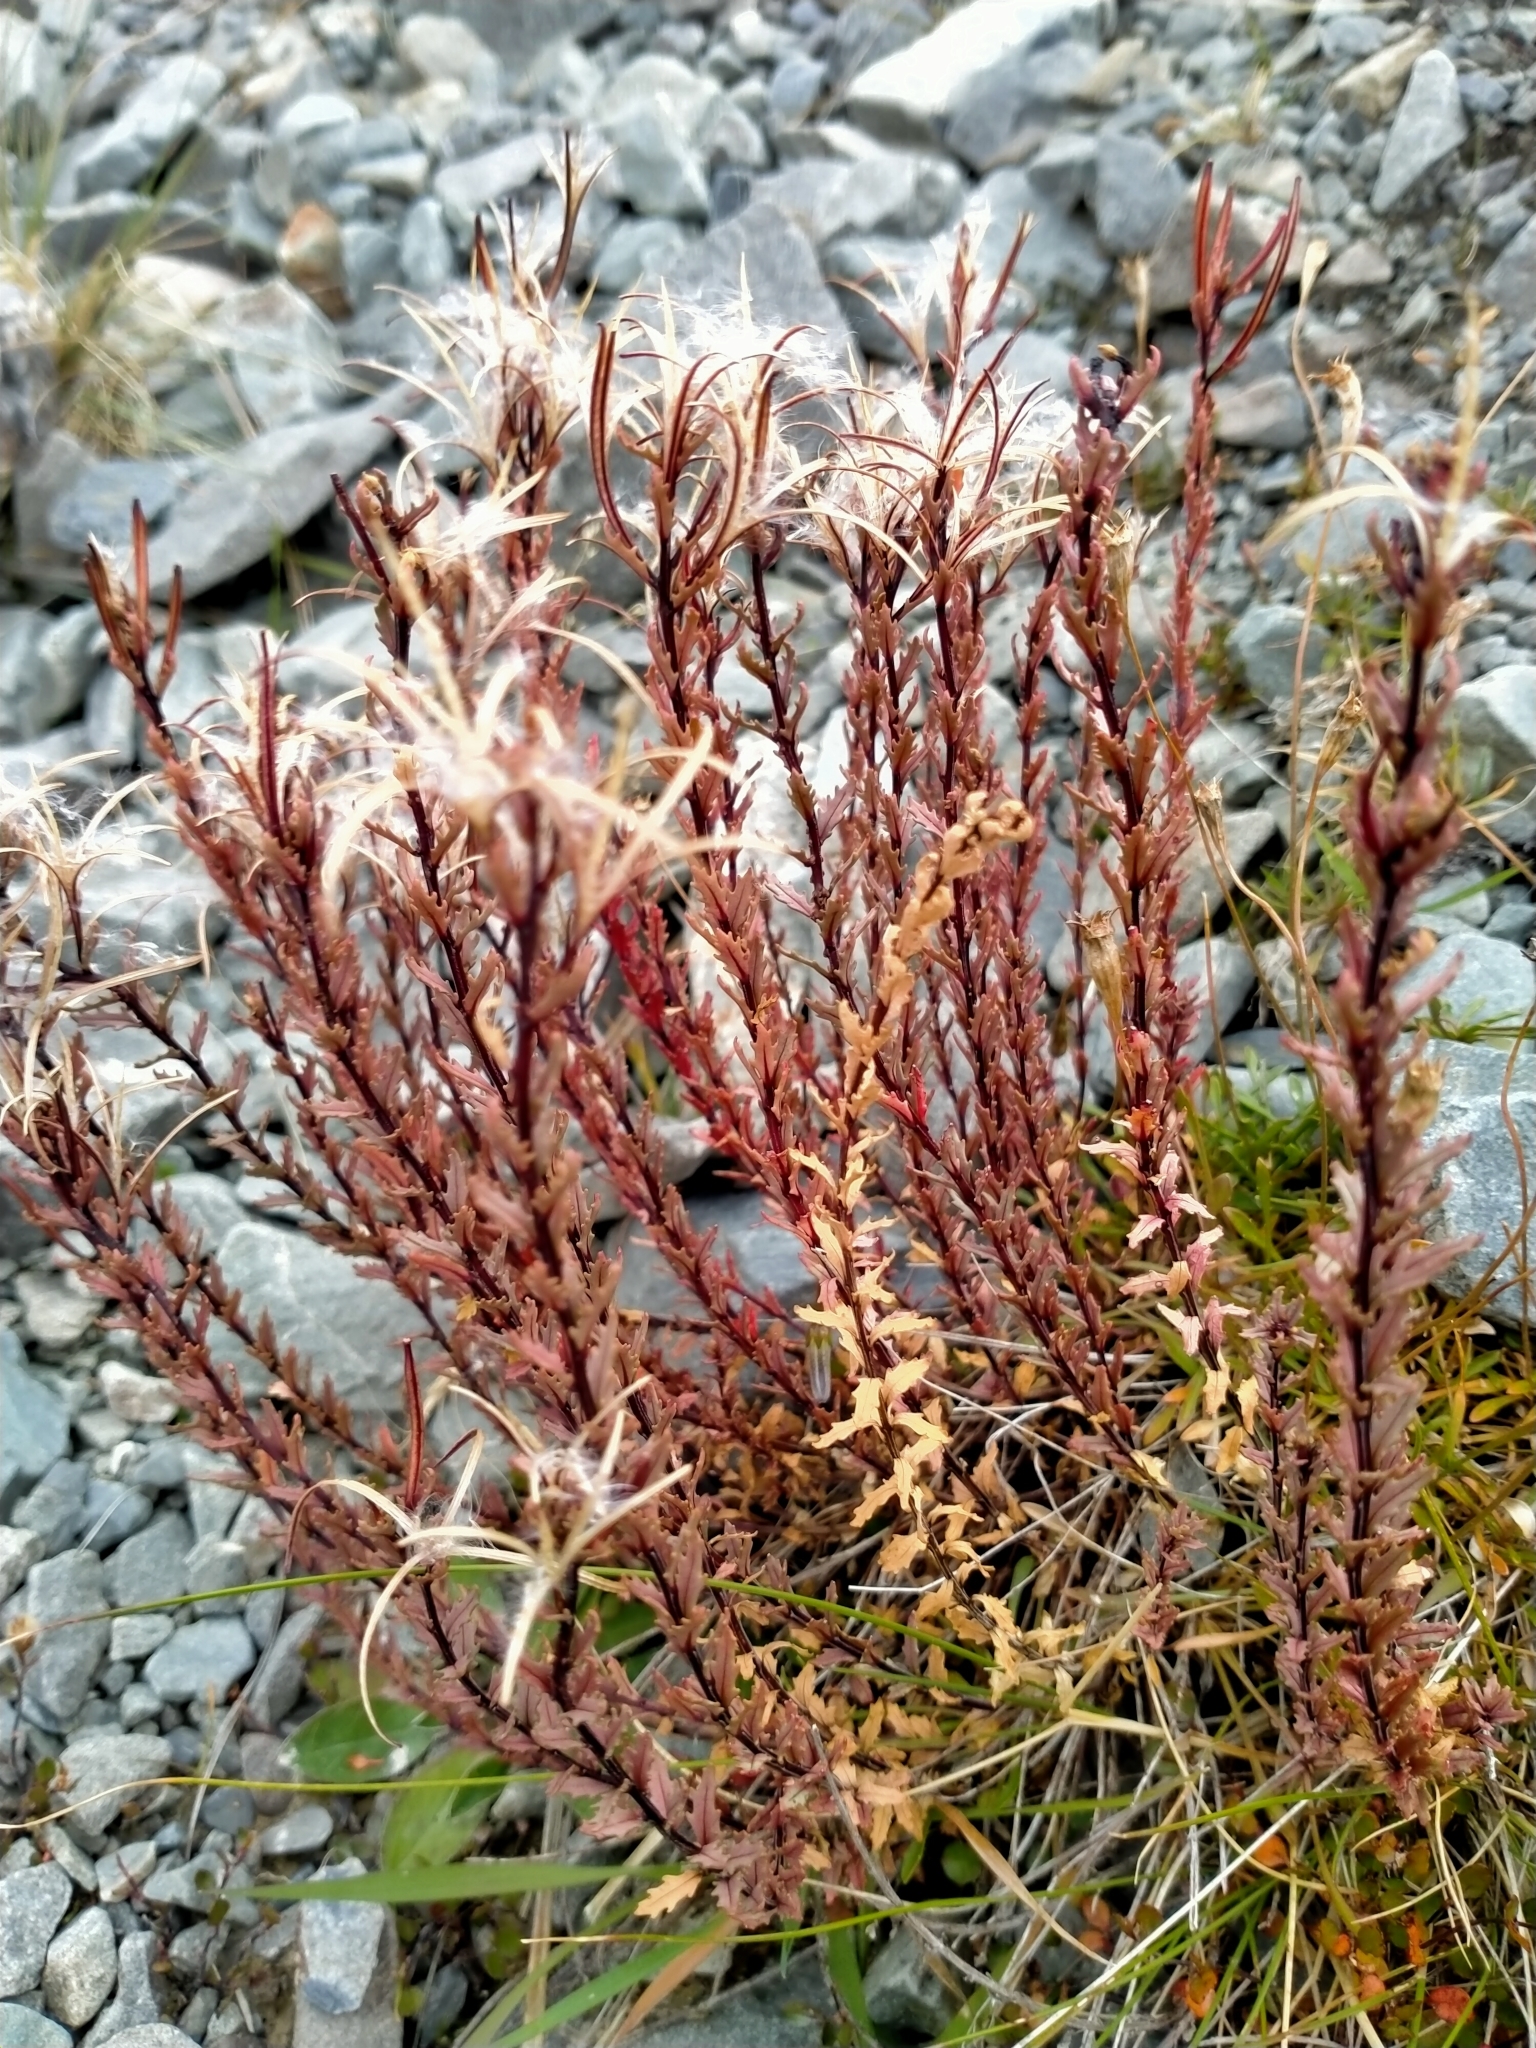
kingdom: Plantae
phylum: Tracheophyta
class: Magnoliopsida
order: Myrtales
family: Onagraceae
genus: Epilobium
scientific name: Epilobium melanocaulon
